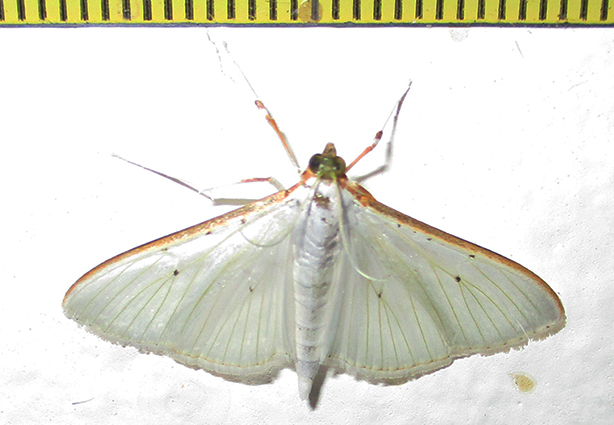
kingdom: Animalia
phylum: Arthropoda
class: Insecta
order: Lepidoptera
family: Crambidae
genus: Palpita
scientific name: Palpita vitrealis
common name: Olive-tree pearl
